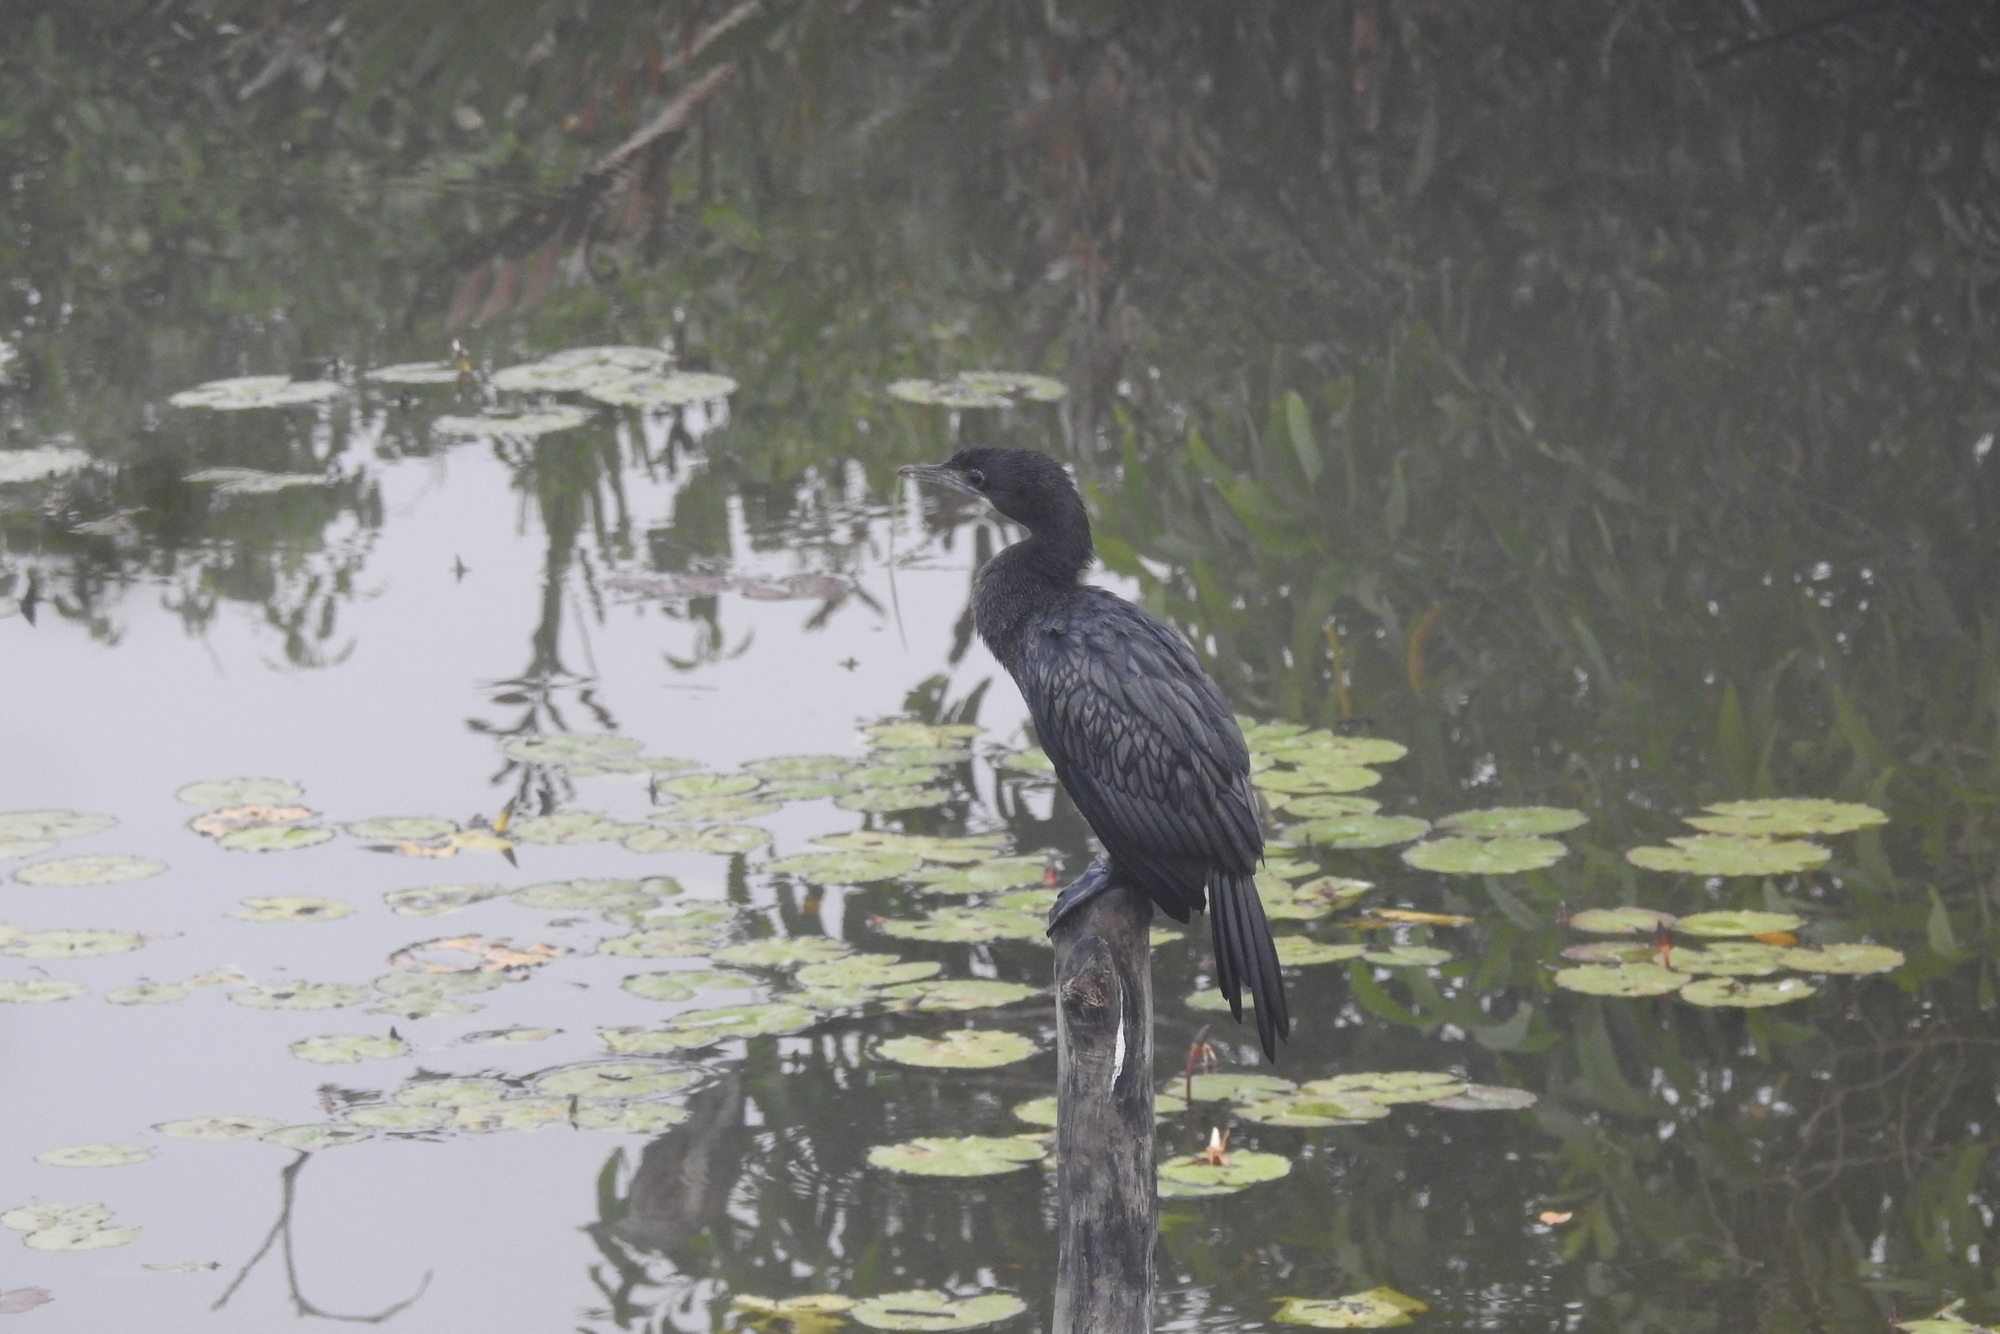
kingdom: Animalia
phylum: Chordata
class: Aves
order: Suliformes
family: Phalacrocoracidae
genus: Microcarbo
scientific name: Microcarbo niger
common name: Little cormorant
